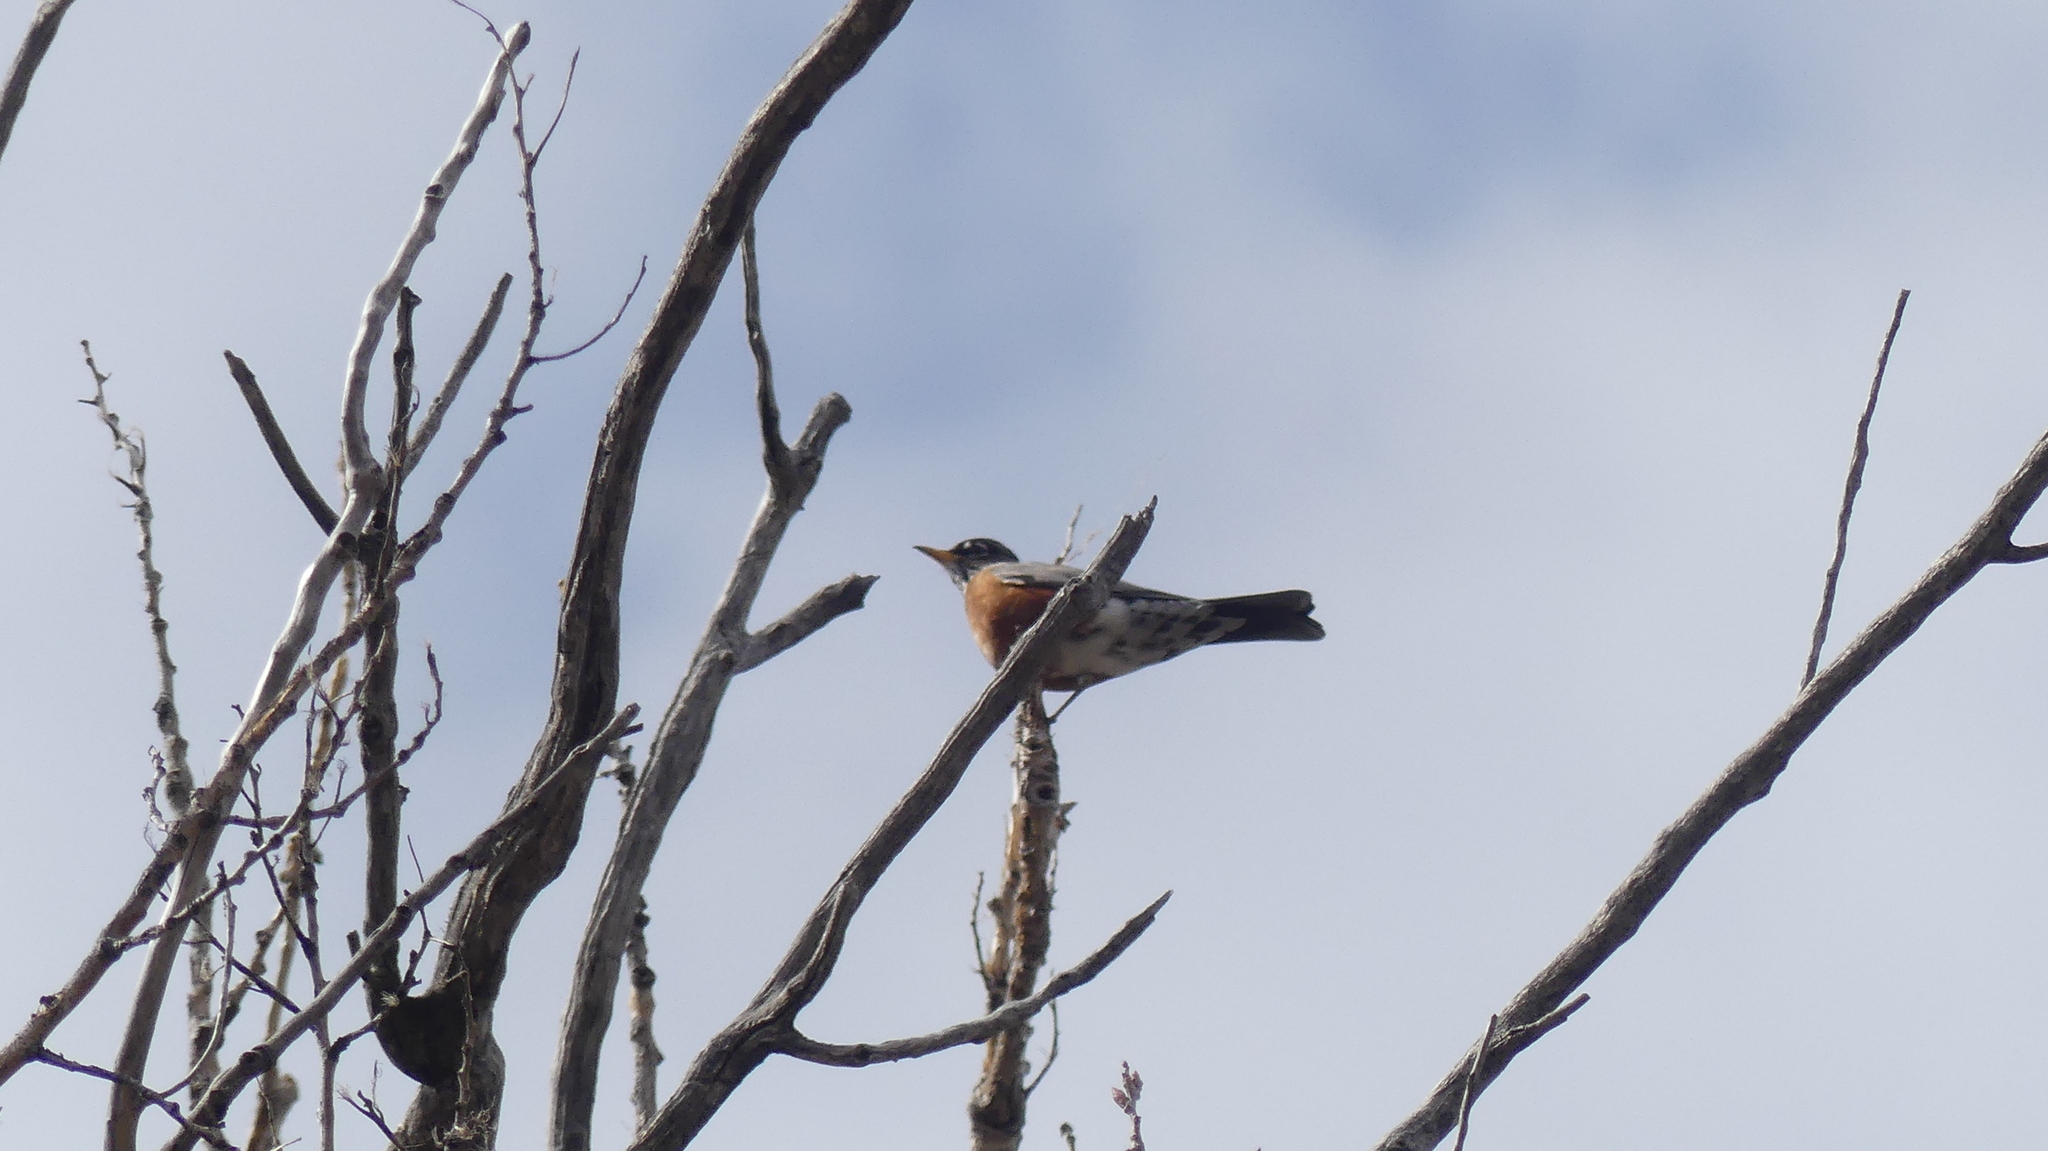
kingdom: Animalia
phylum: Chordata
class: Aves
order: Passeriformes
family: Turdidae
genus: Turdus
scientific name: Turdus migratorius
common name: American robin
